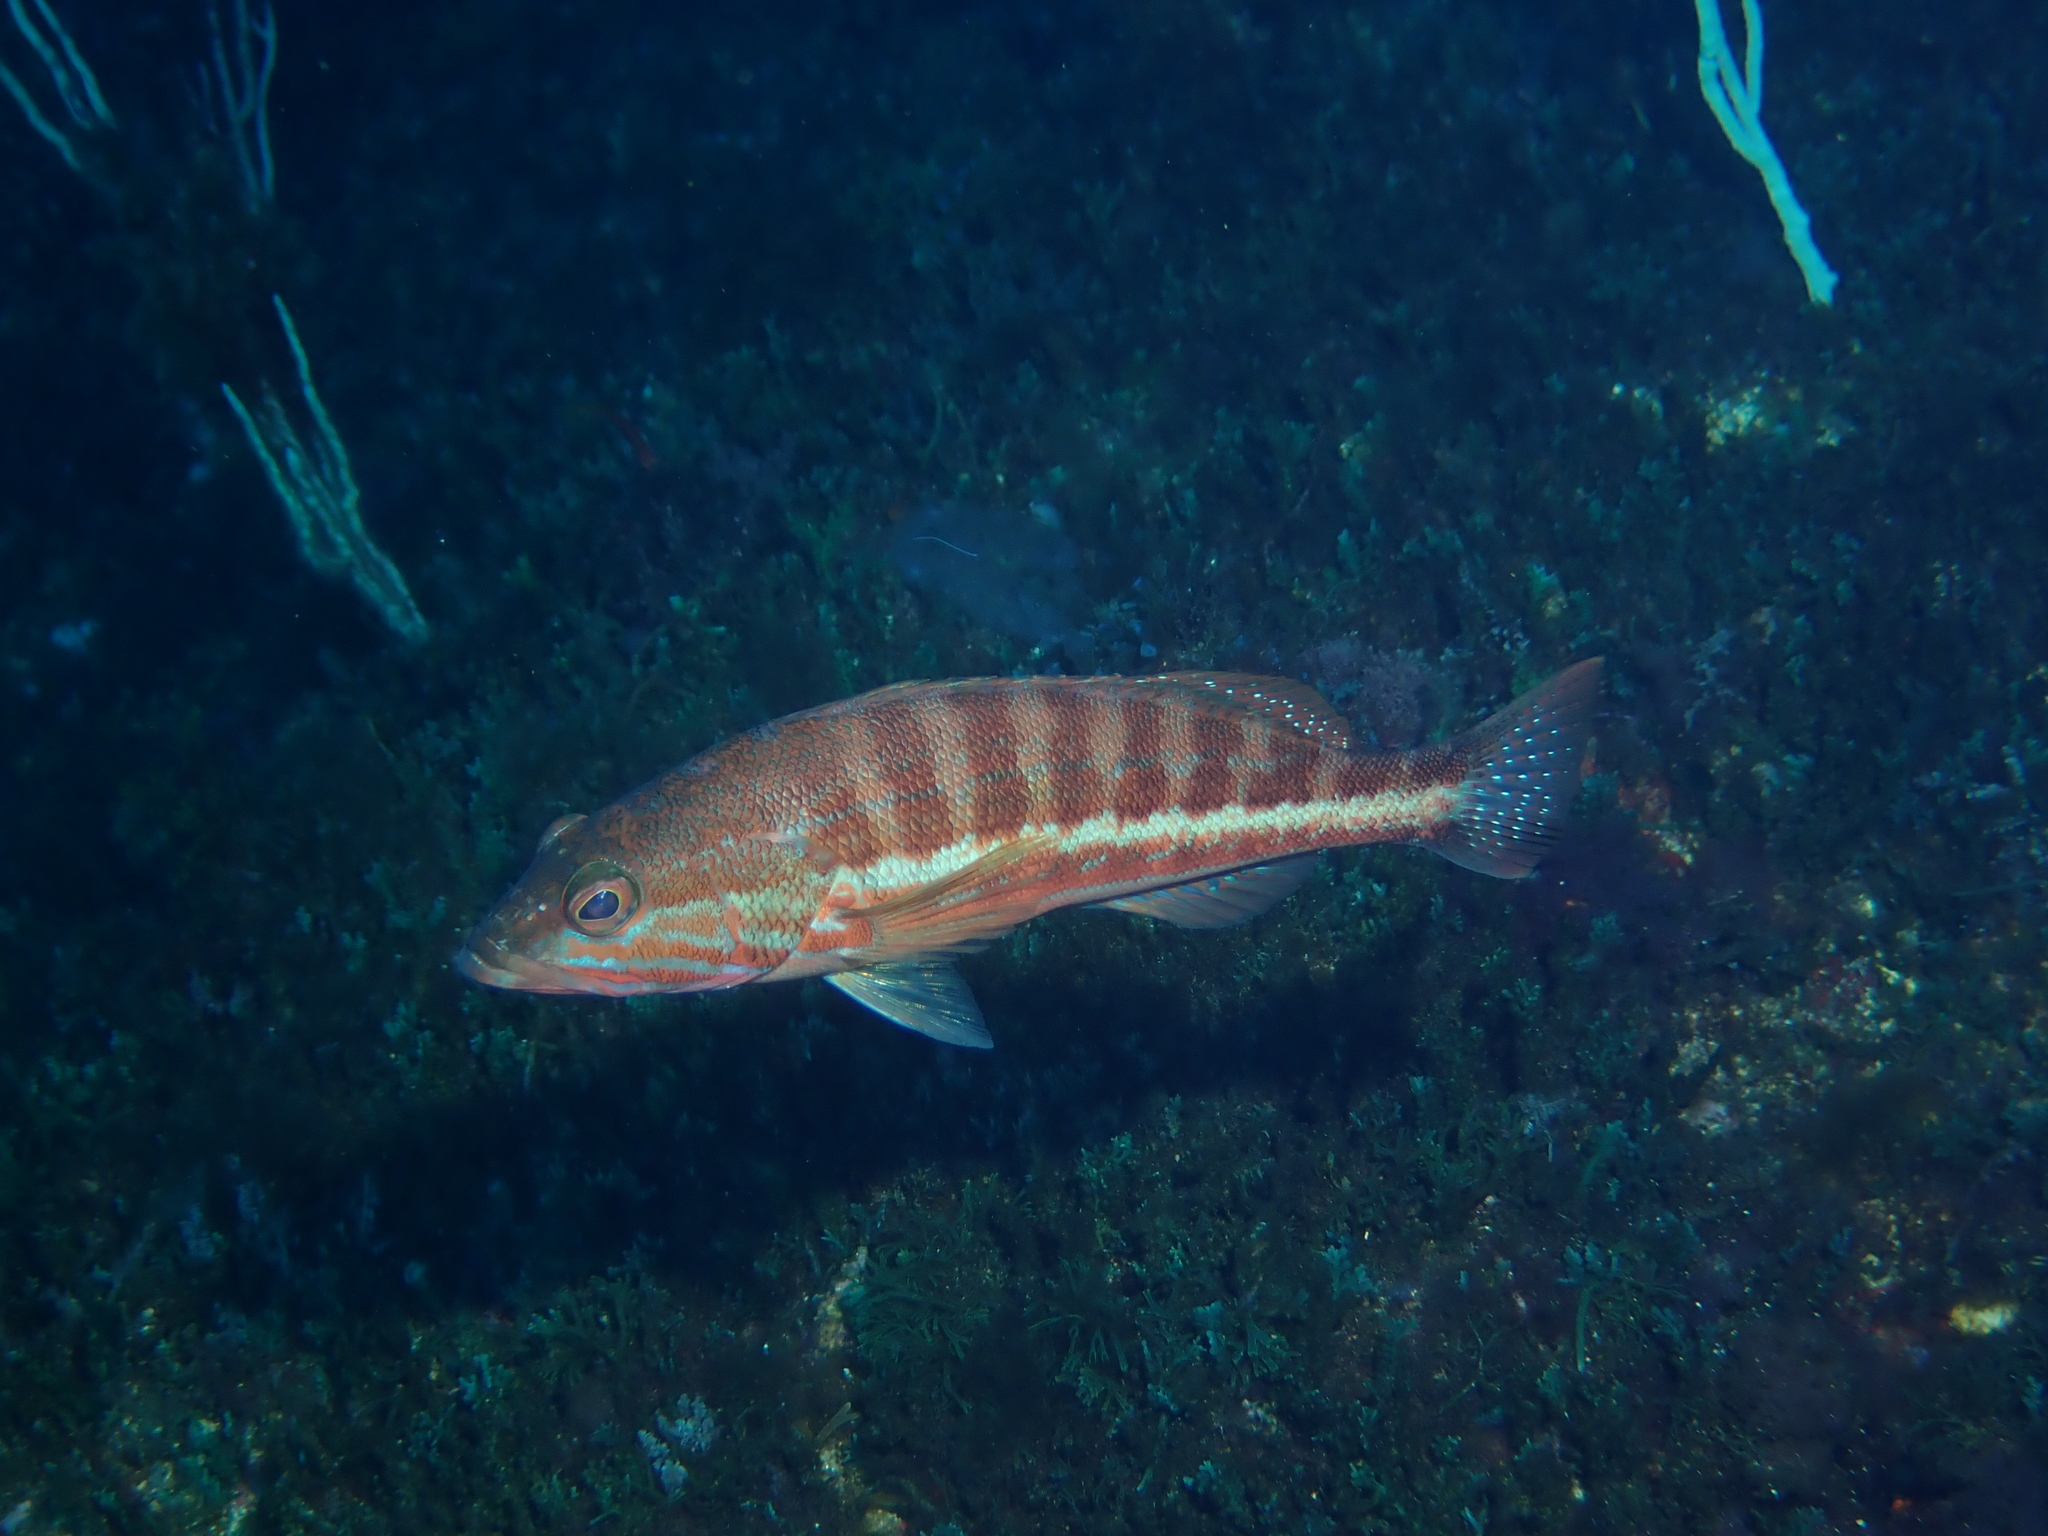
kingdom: Animalia
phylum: Chordata
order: Perciformes
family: Serranidae
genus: Serranus
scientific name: Serranus cabrilla
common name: Comber
